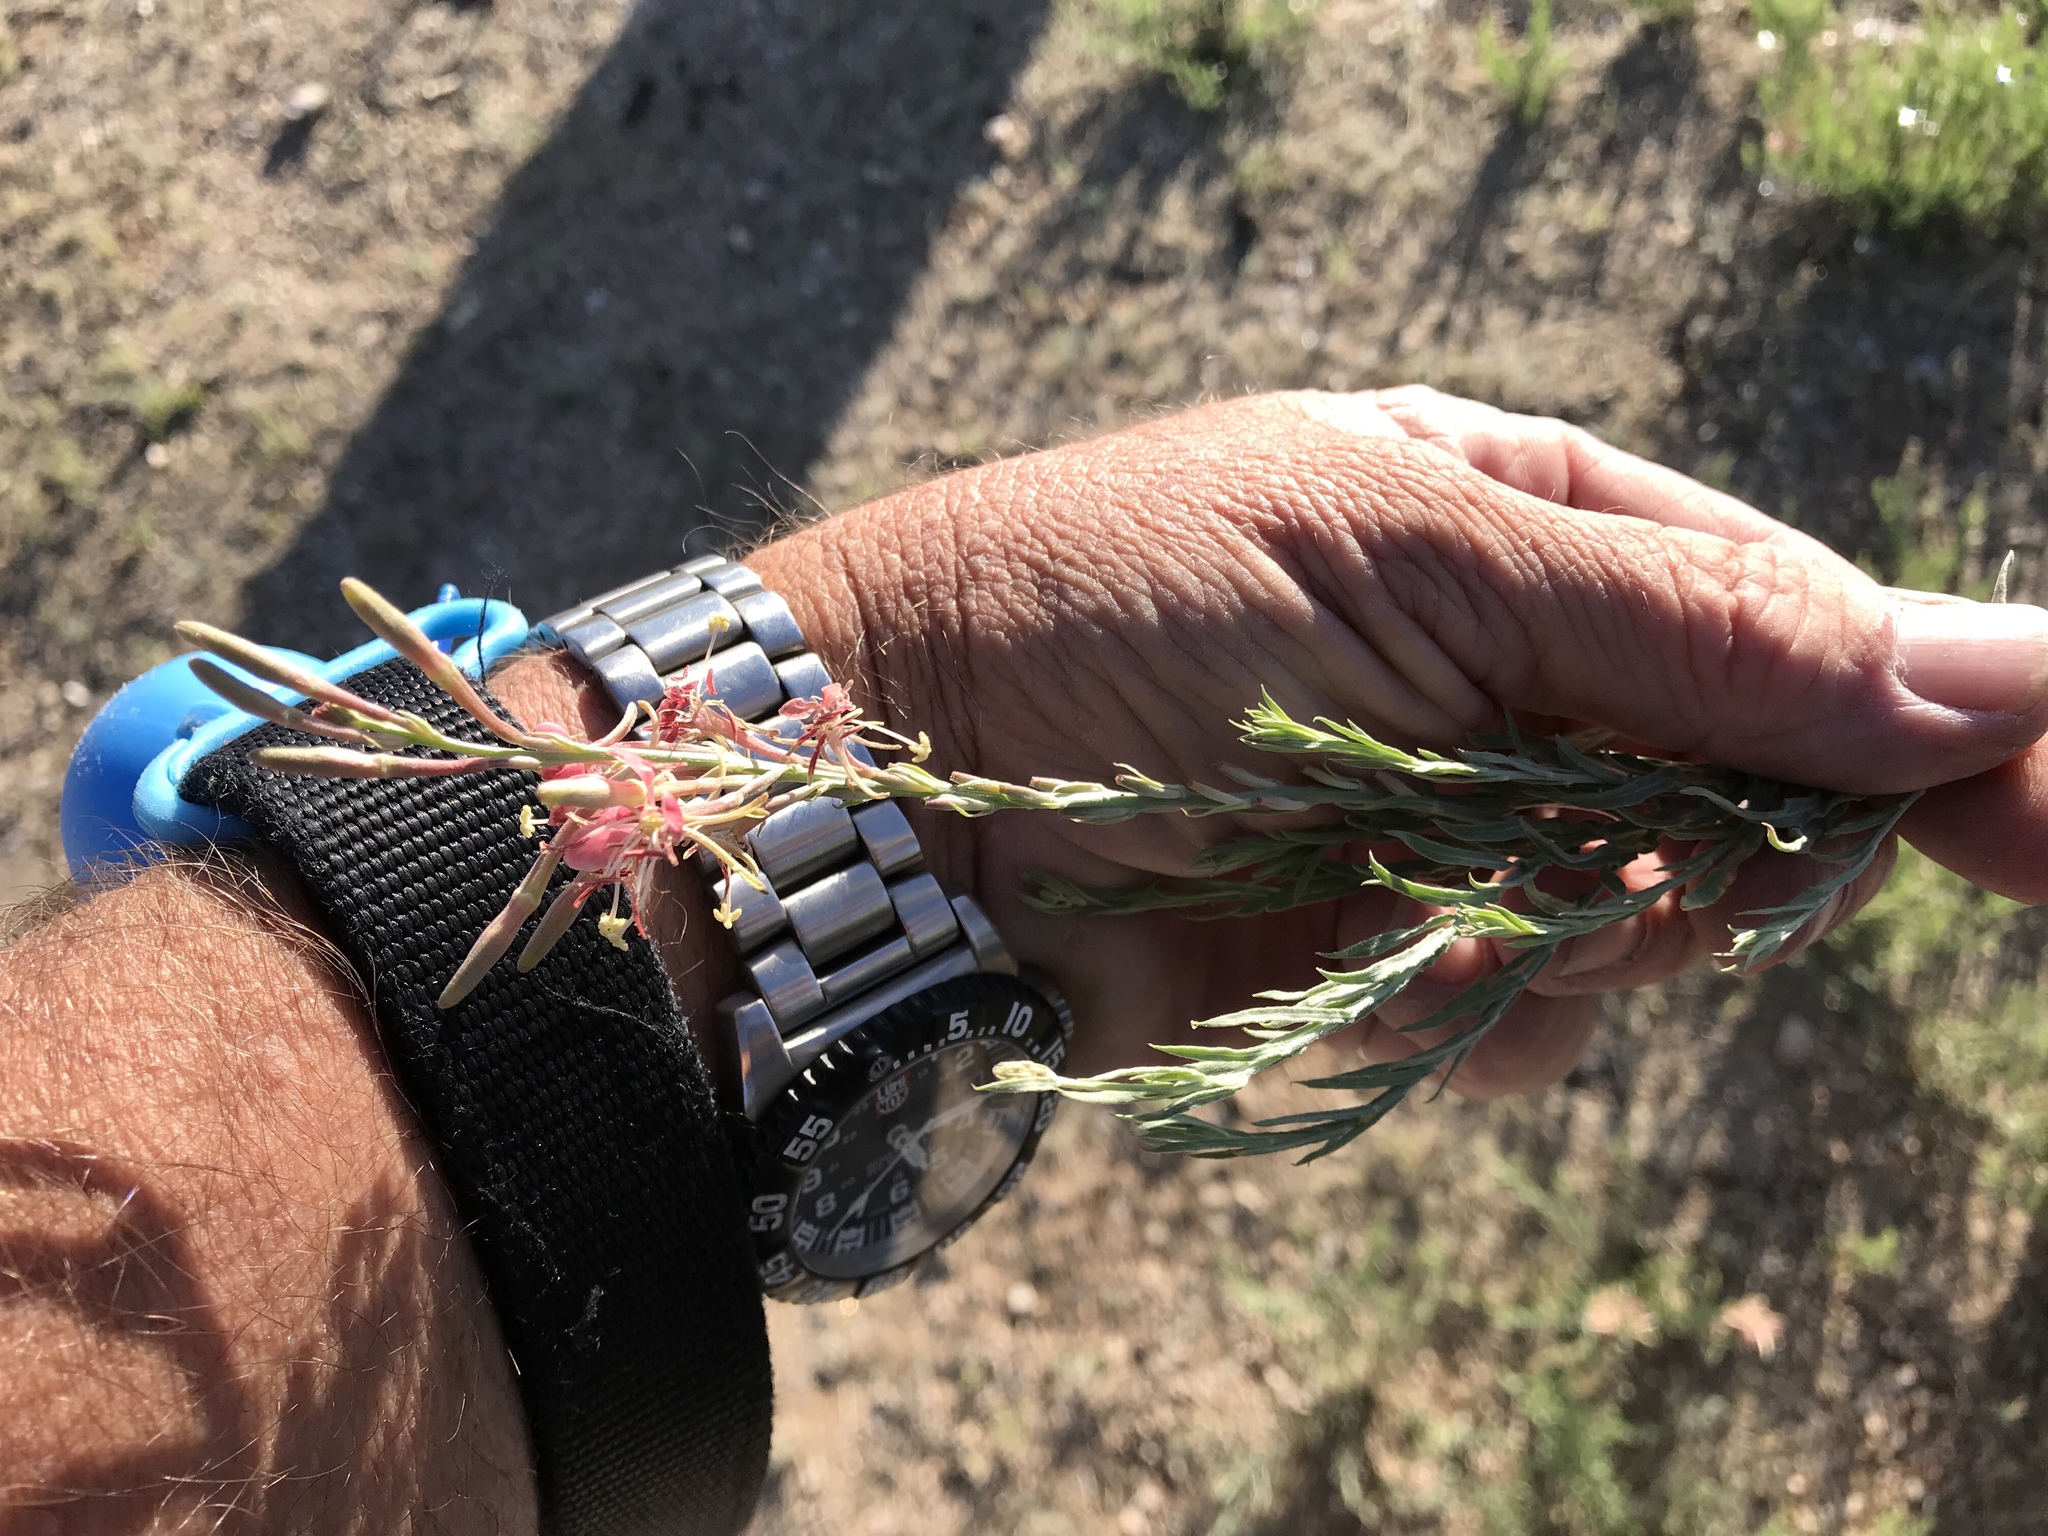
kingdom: Plantae
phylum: Tracheophyta
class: Magnoliopsida
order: Myrtales
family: Onagraceae
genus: Oenothera
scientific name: Oenothera suffrutescens
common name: Scarlet beeblossom
